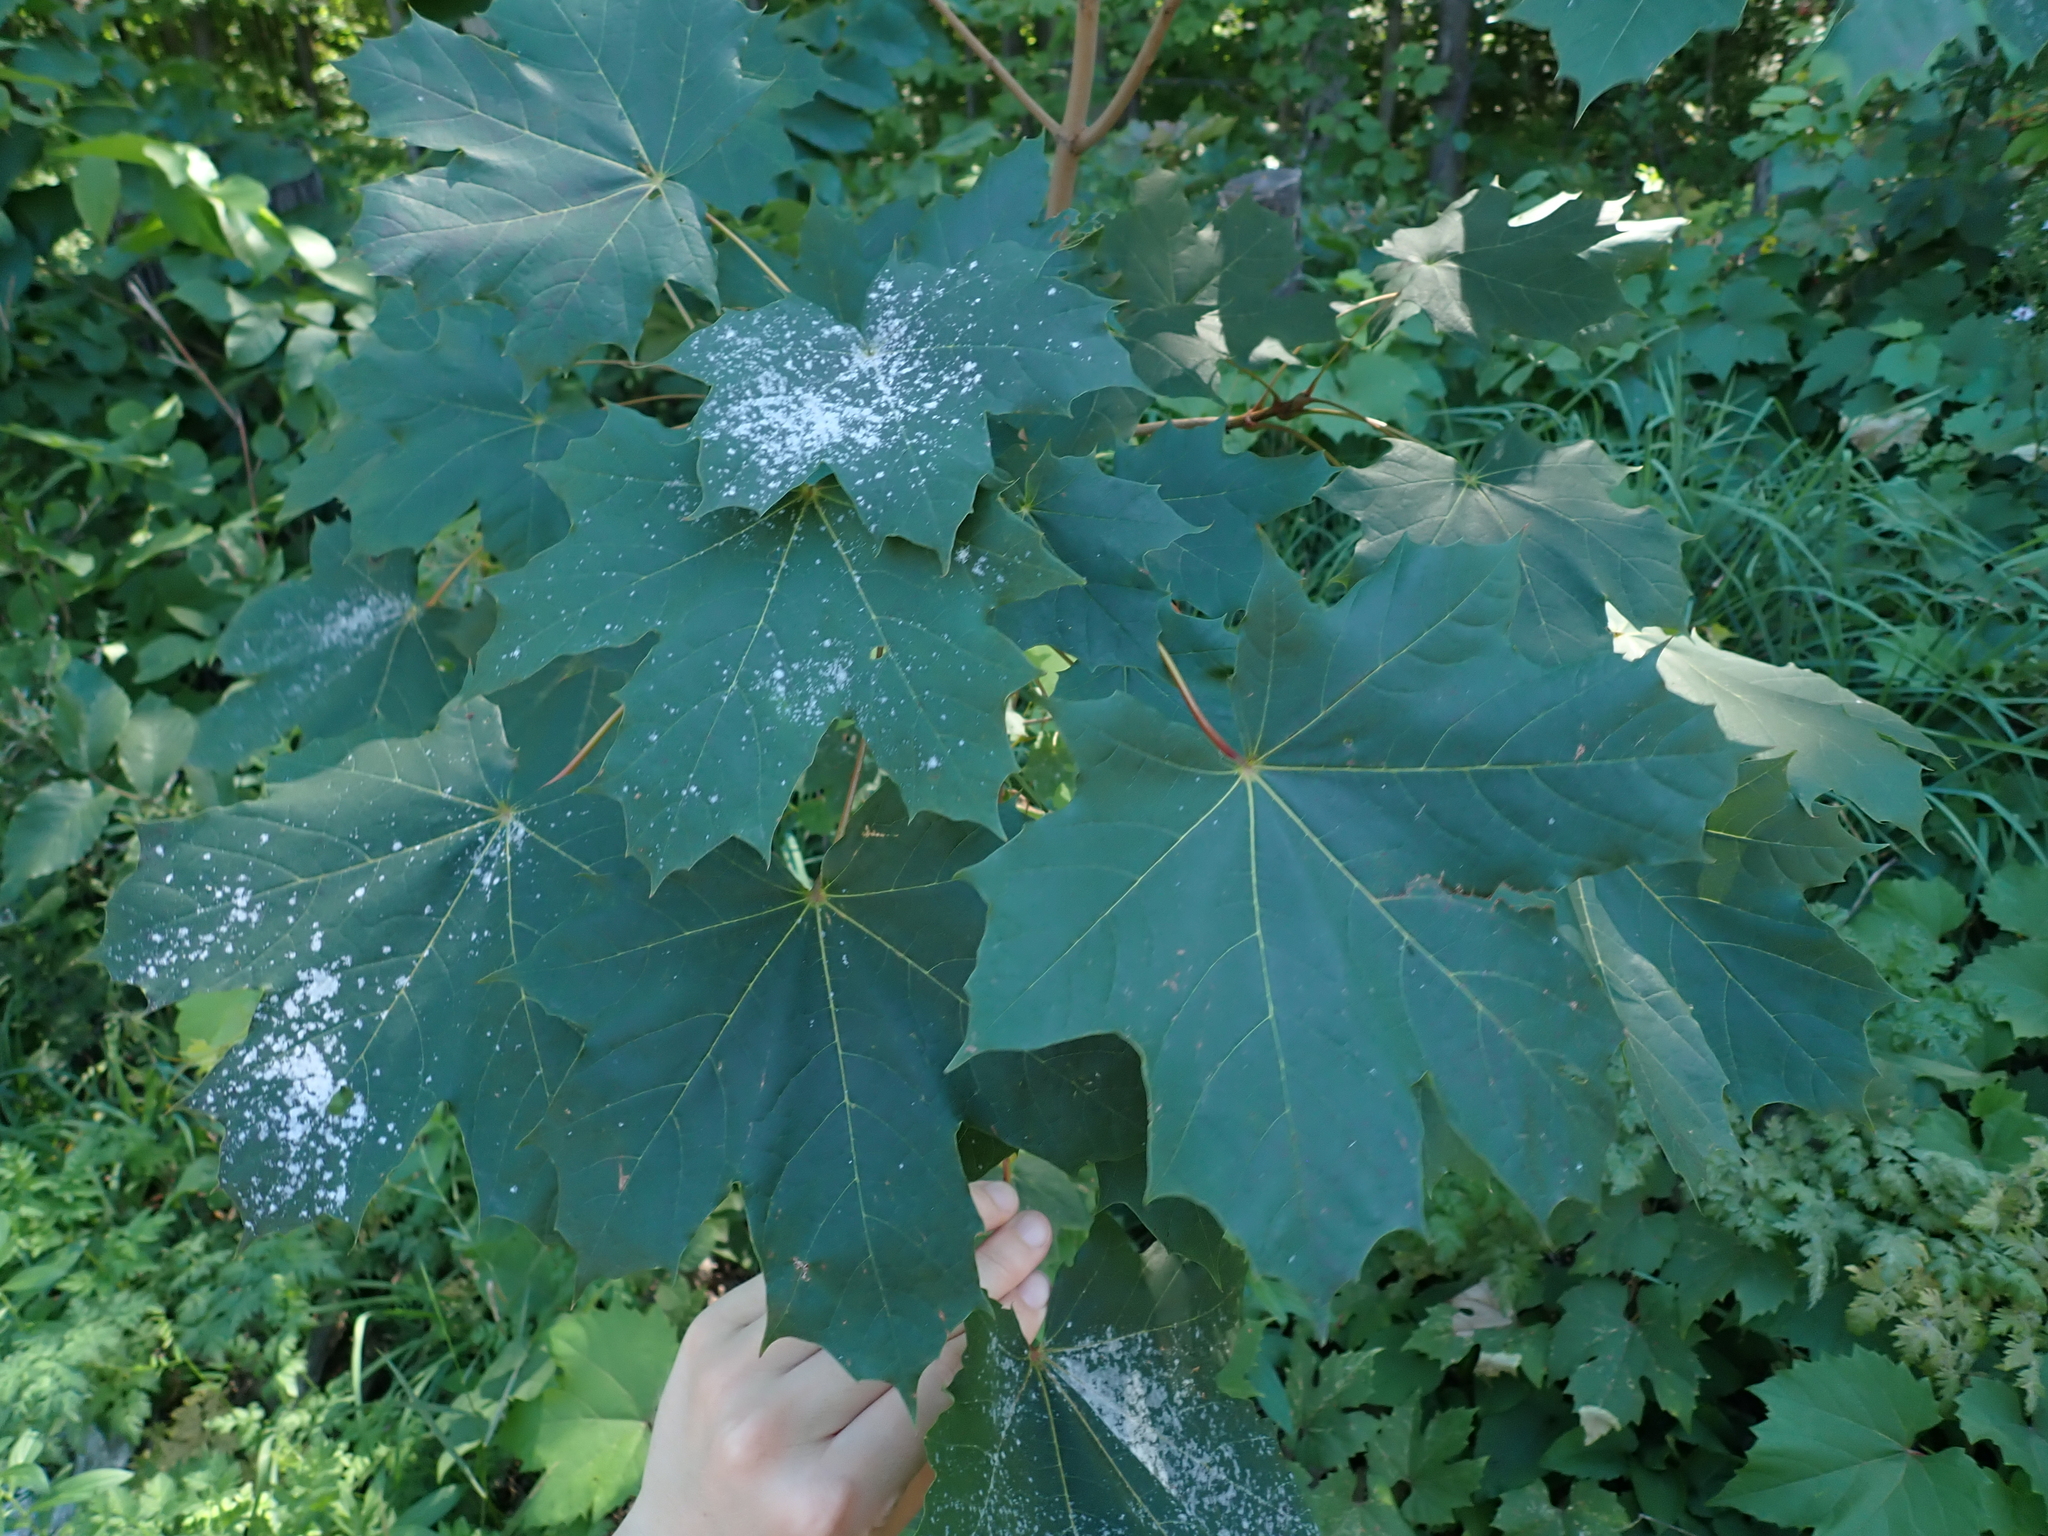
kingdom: Plantae
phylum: Tracheophyta
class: Magnoliopsida
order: Sapindales
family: Sapindaceae
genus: Acer
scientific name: Acer platanoides
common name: Norway maple
